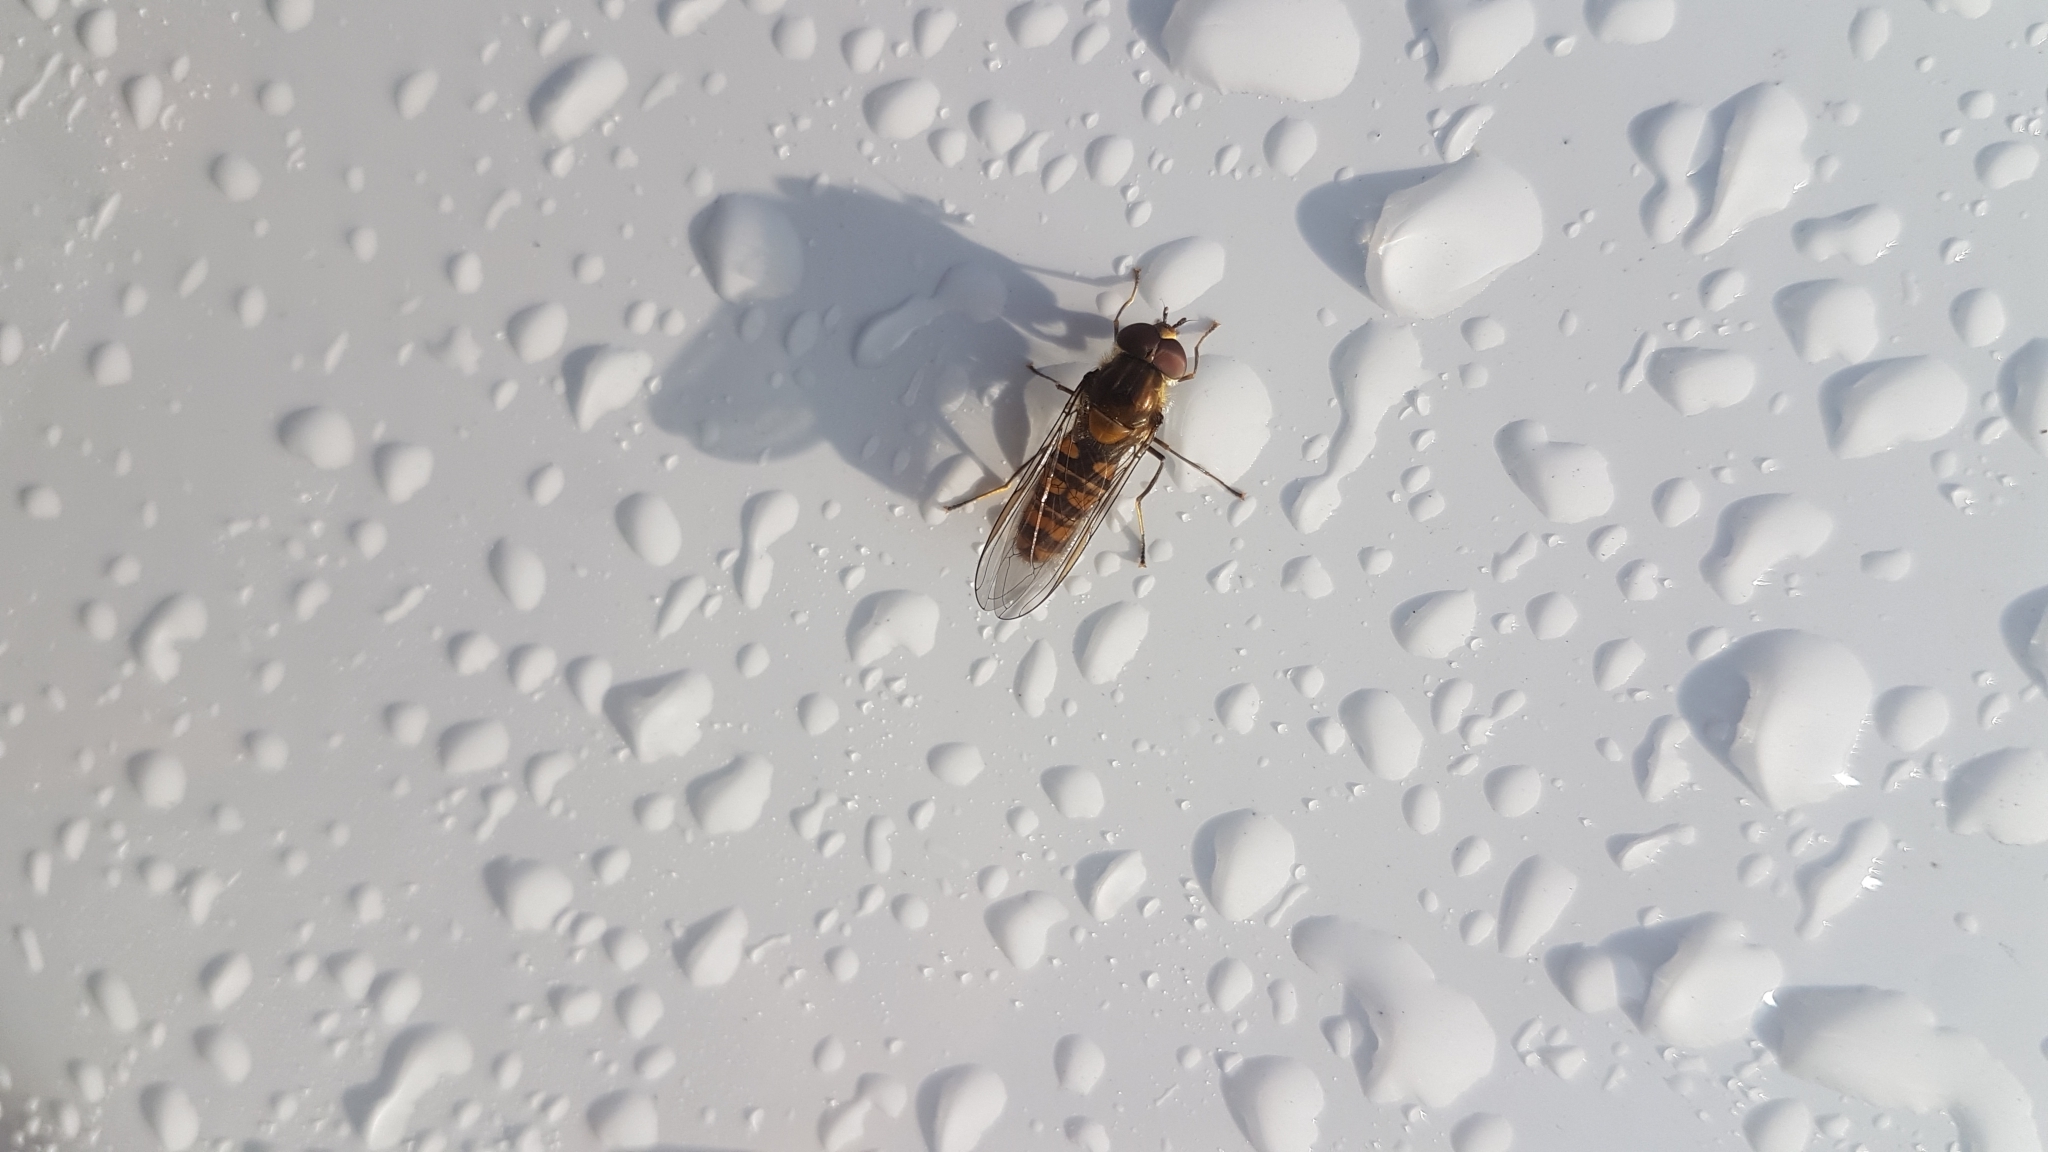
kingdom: Animalia
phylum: Arthropoda
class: Insecta
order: Diptera
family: Syrphidae
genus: Episyrphus
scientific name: Episyrphus balteatus
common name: Marmalade hoverfly
